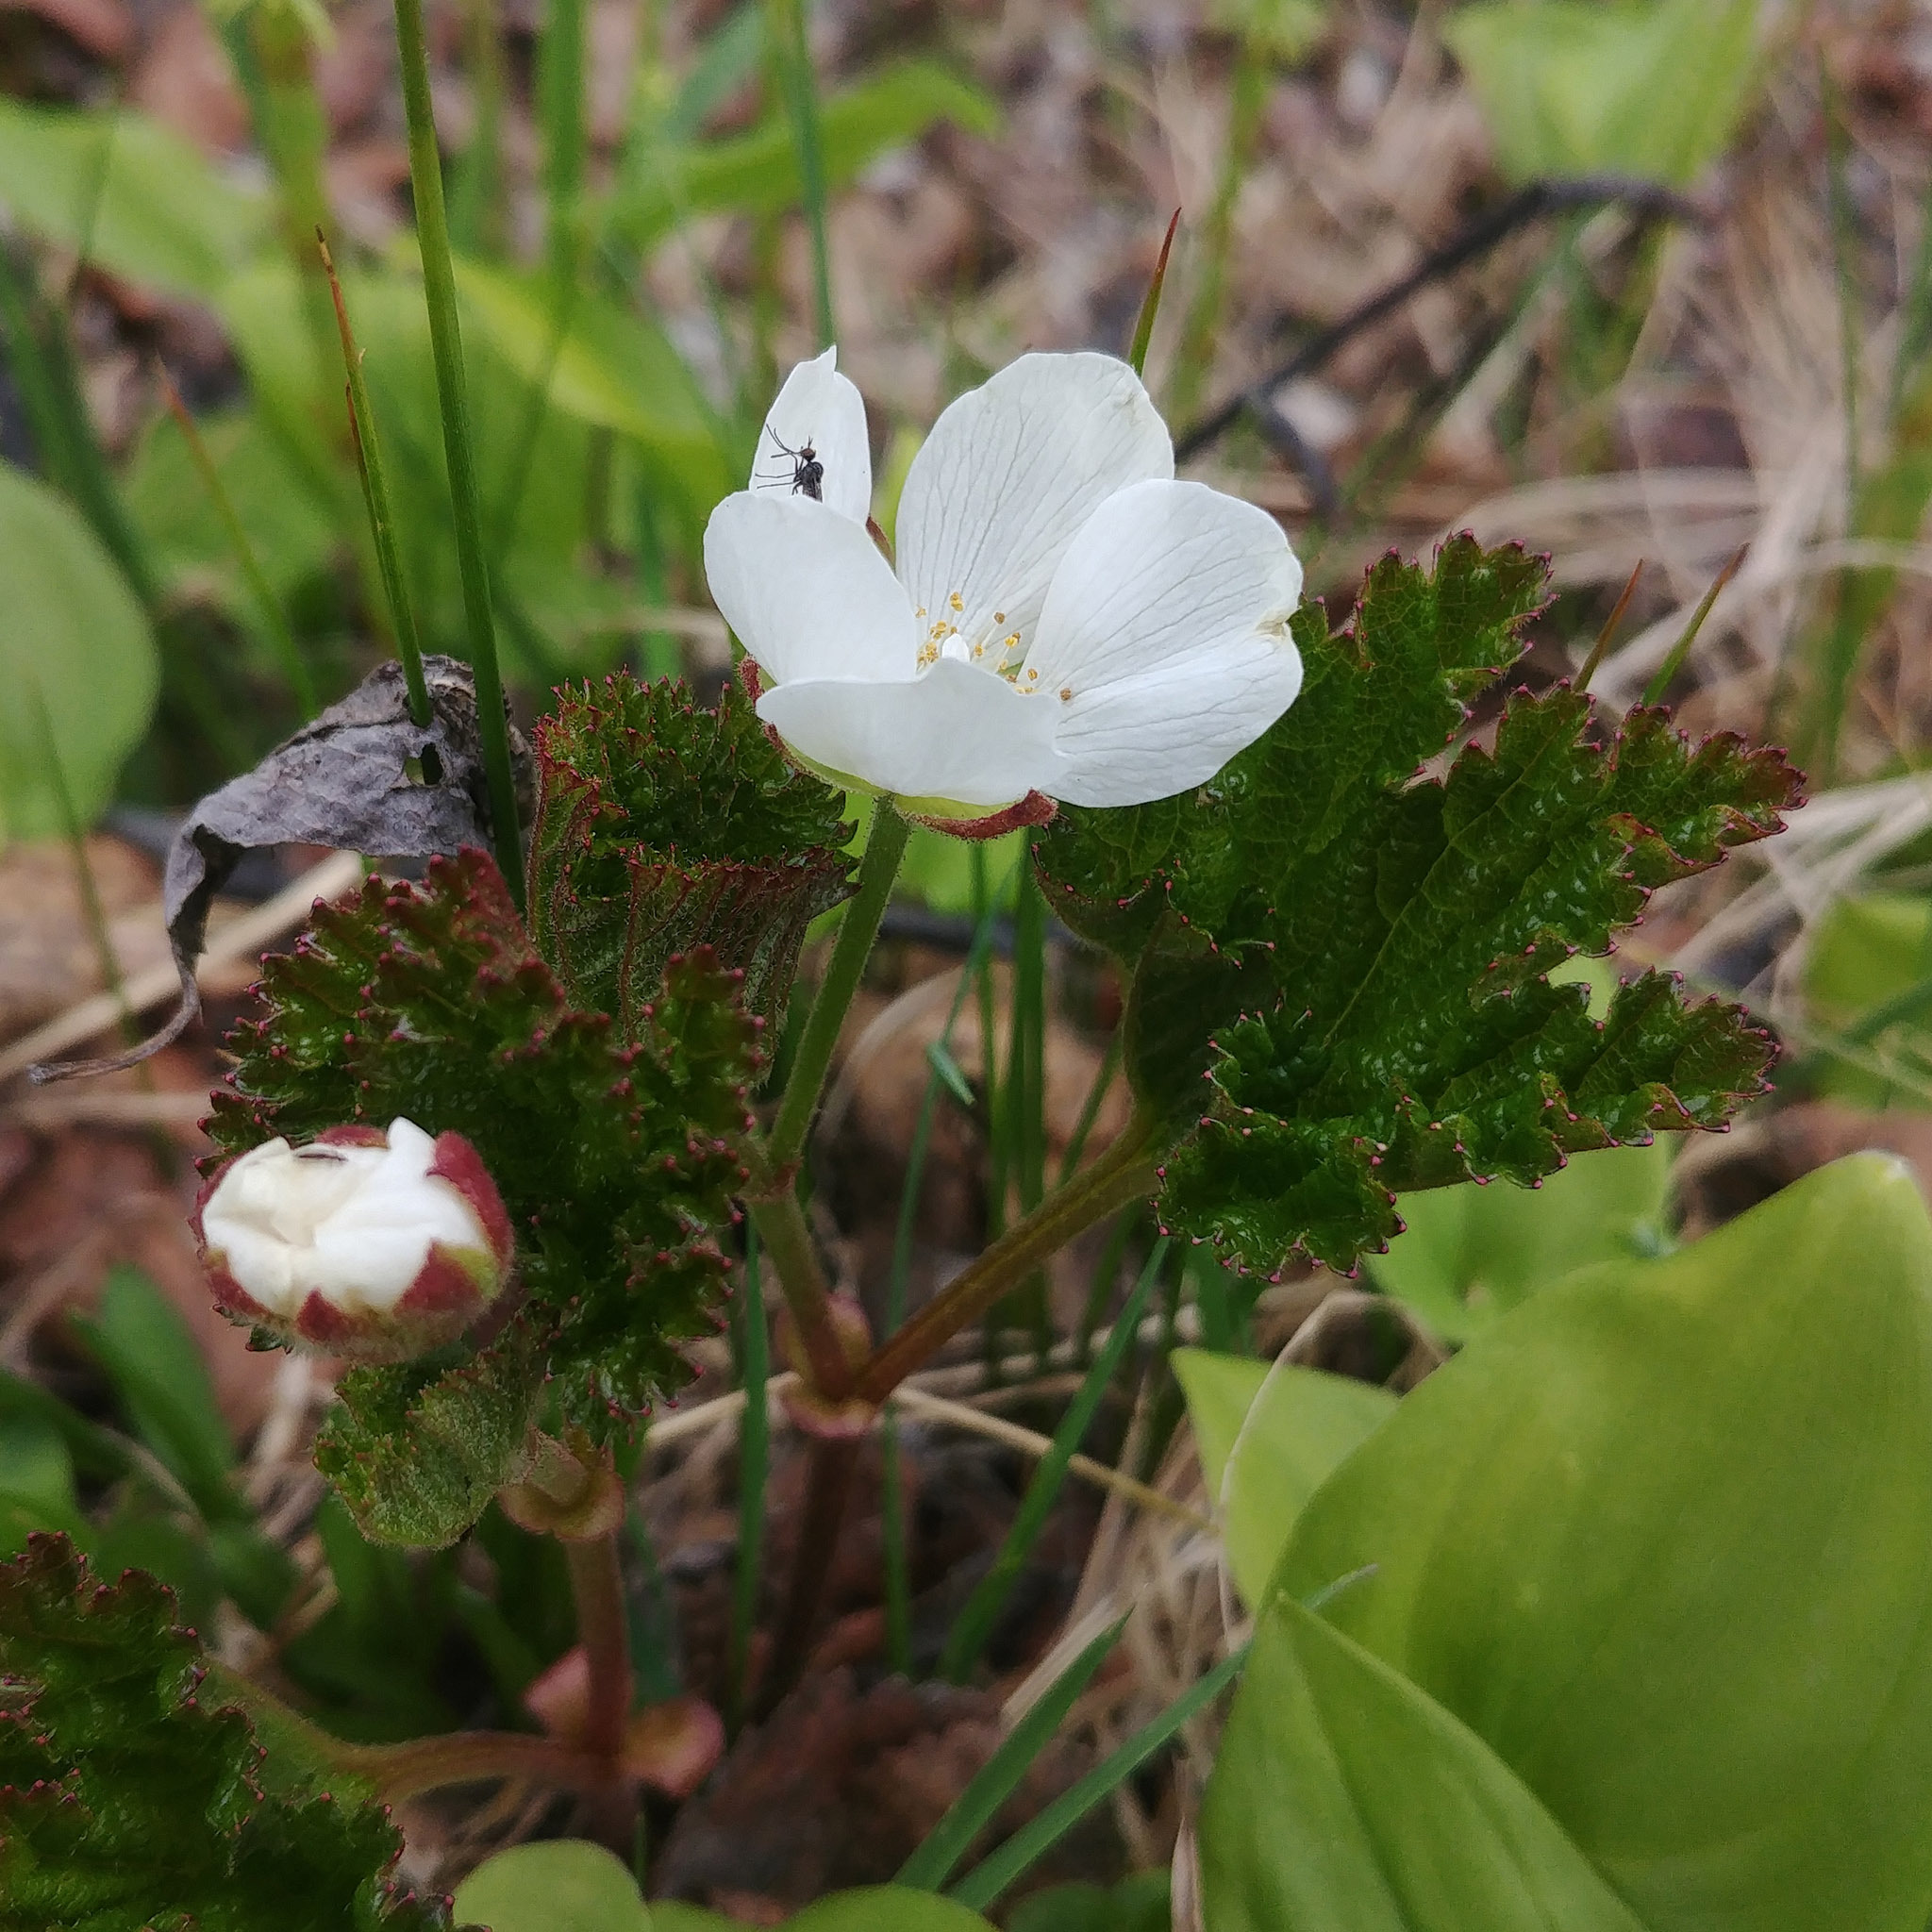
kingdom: Plantae
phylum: Tracheophyta
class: Magnoliopsida
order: Rosales
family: Rosaceae
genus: Rubus
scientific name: Rubus chamaemorus
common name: Cloudberry
